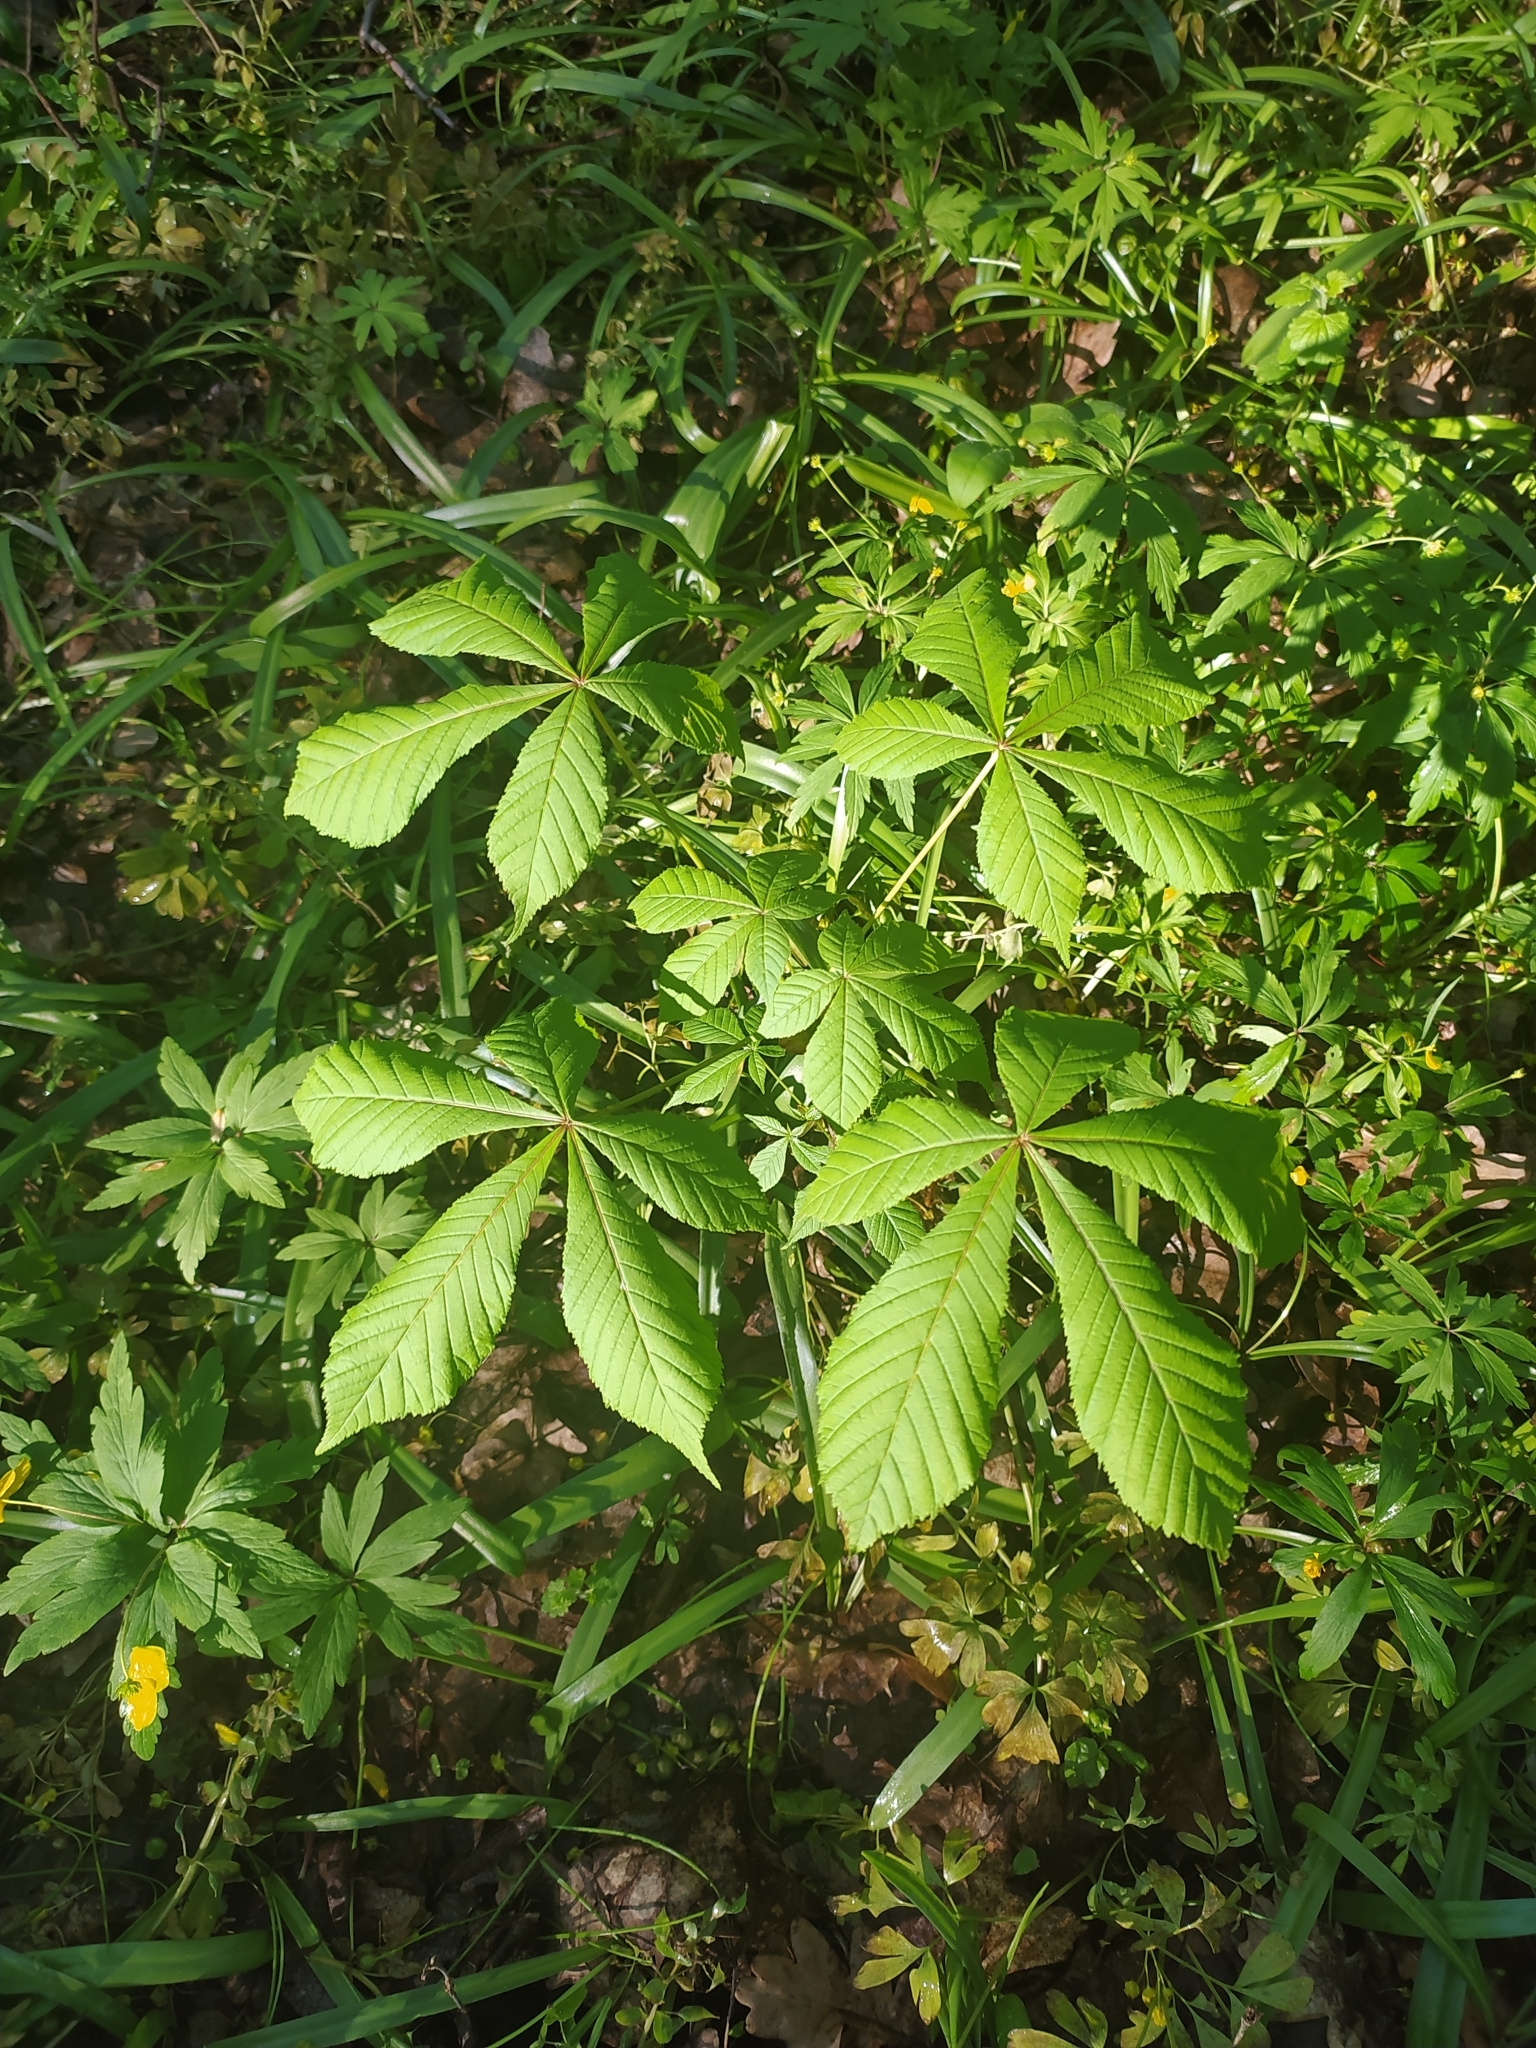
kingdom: Plantae
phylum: Tracheophyta
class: Magnoliopsida
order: Sapindales
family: Sapindaceae
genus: Aesculus
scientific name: Aesculus hippocastanum
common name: Horse-chestnut
